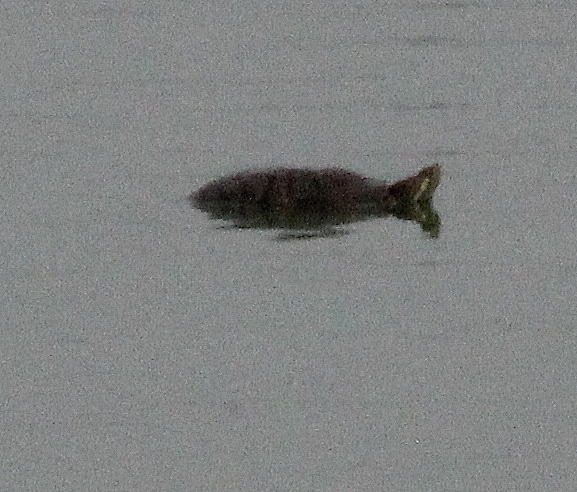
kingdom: Animalia
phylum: Chordata
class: Testudines
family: Emydidae
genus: Trachemys
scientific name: Trachemys scripta
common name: Slider
